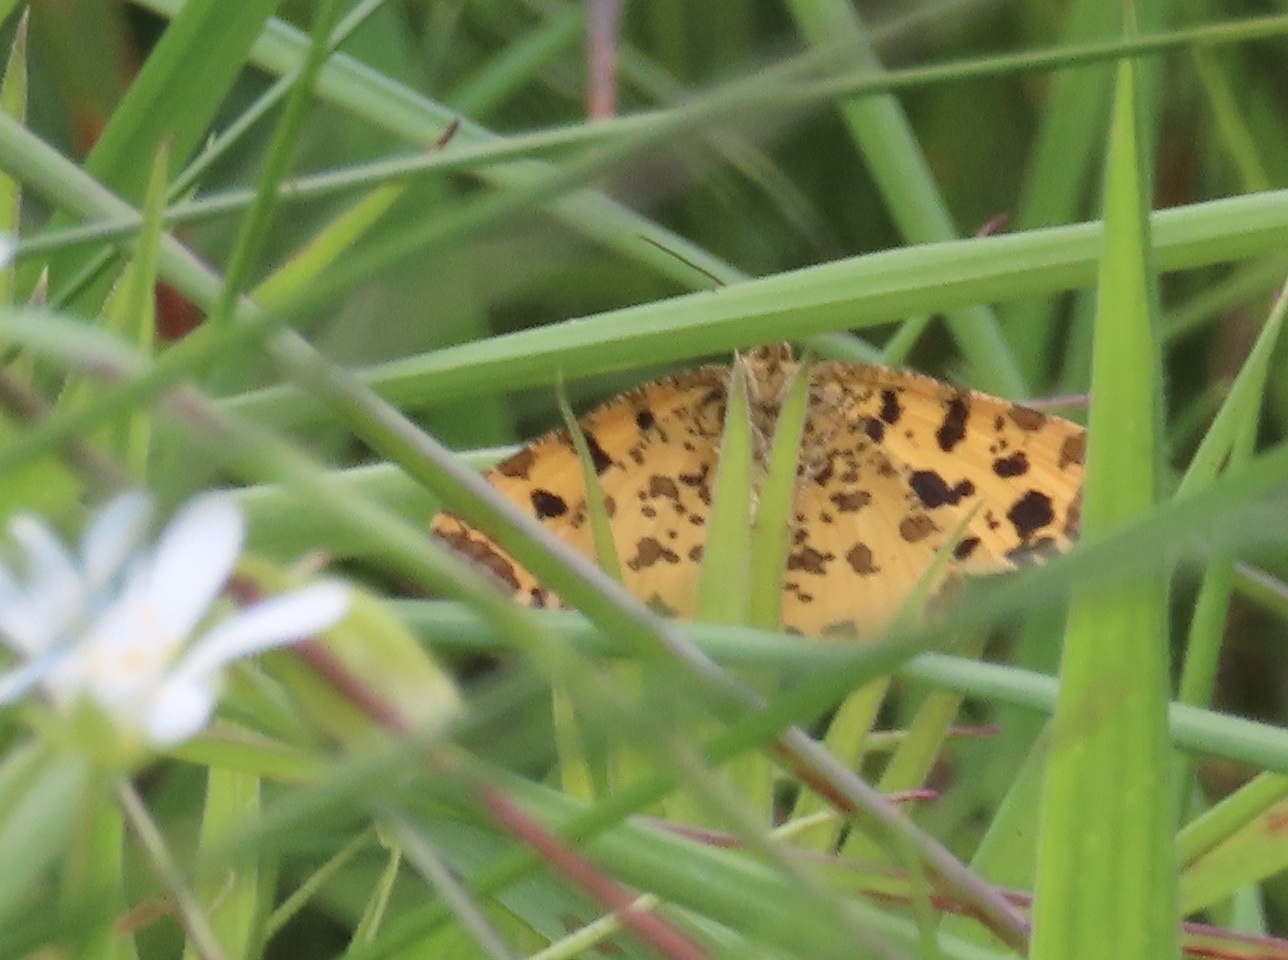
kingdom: Animalia
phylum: Arthropoda
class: Insecta
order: Lepidoptera
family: Geometridae
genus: Pseudopanthera
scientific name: Pseudopanthera macularia
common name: Speckled yellow
